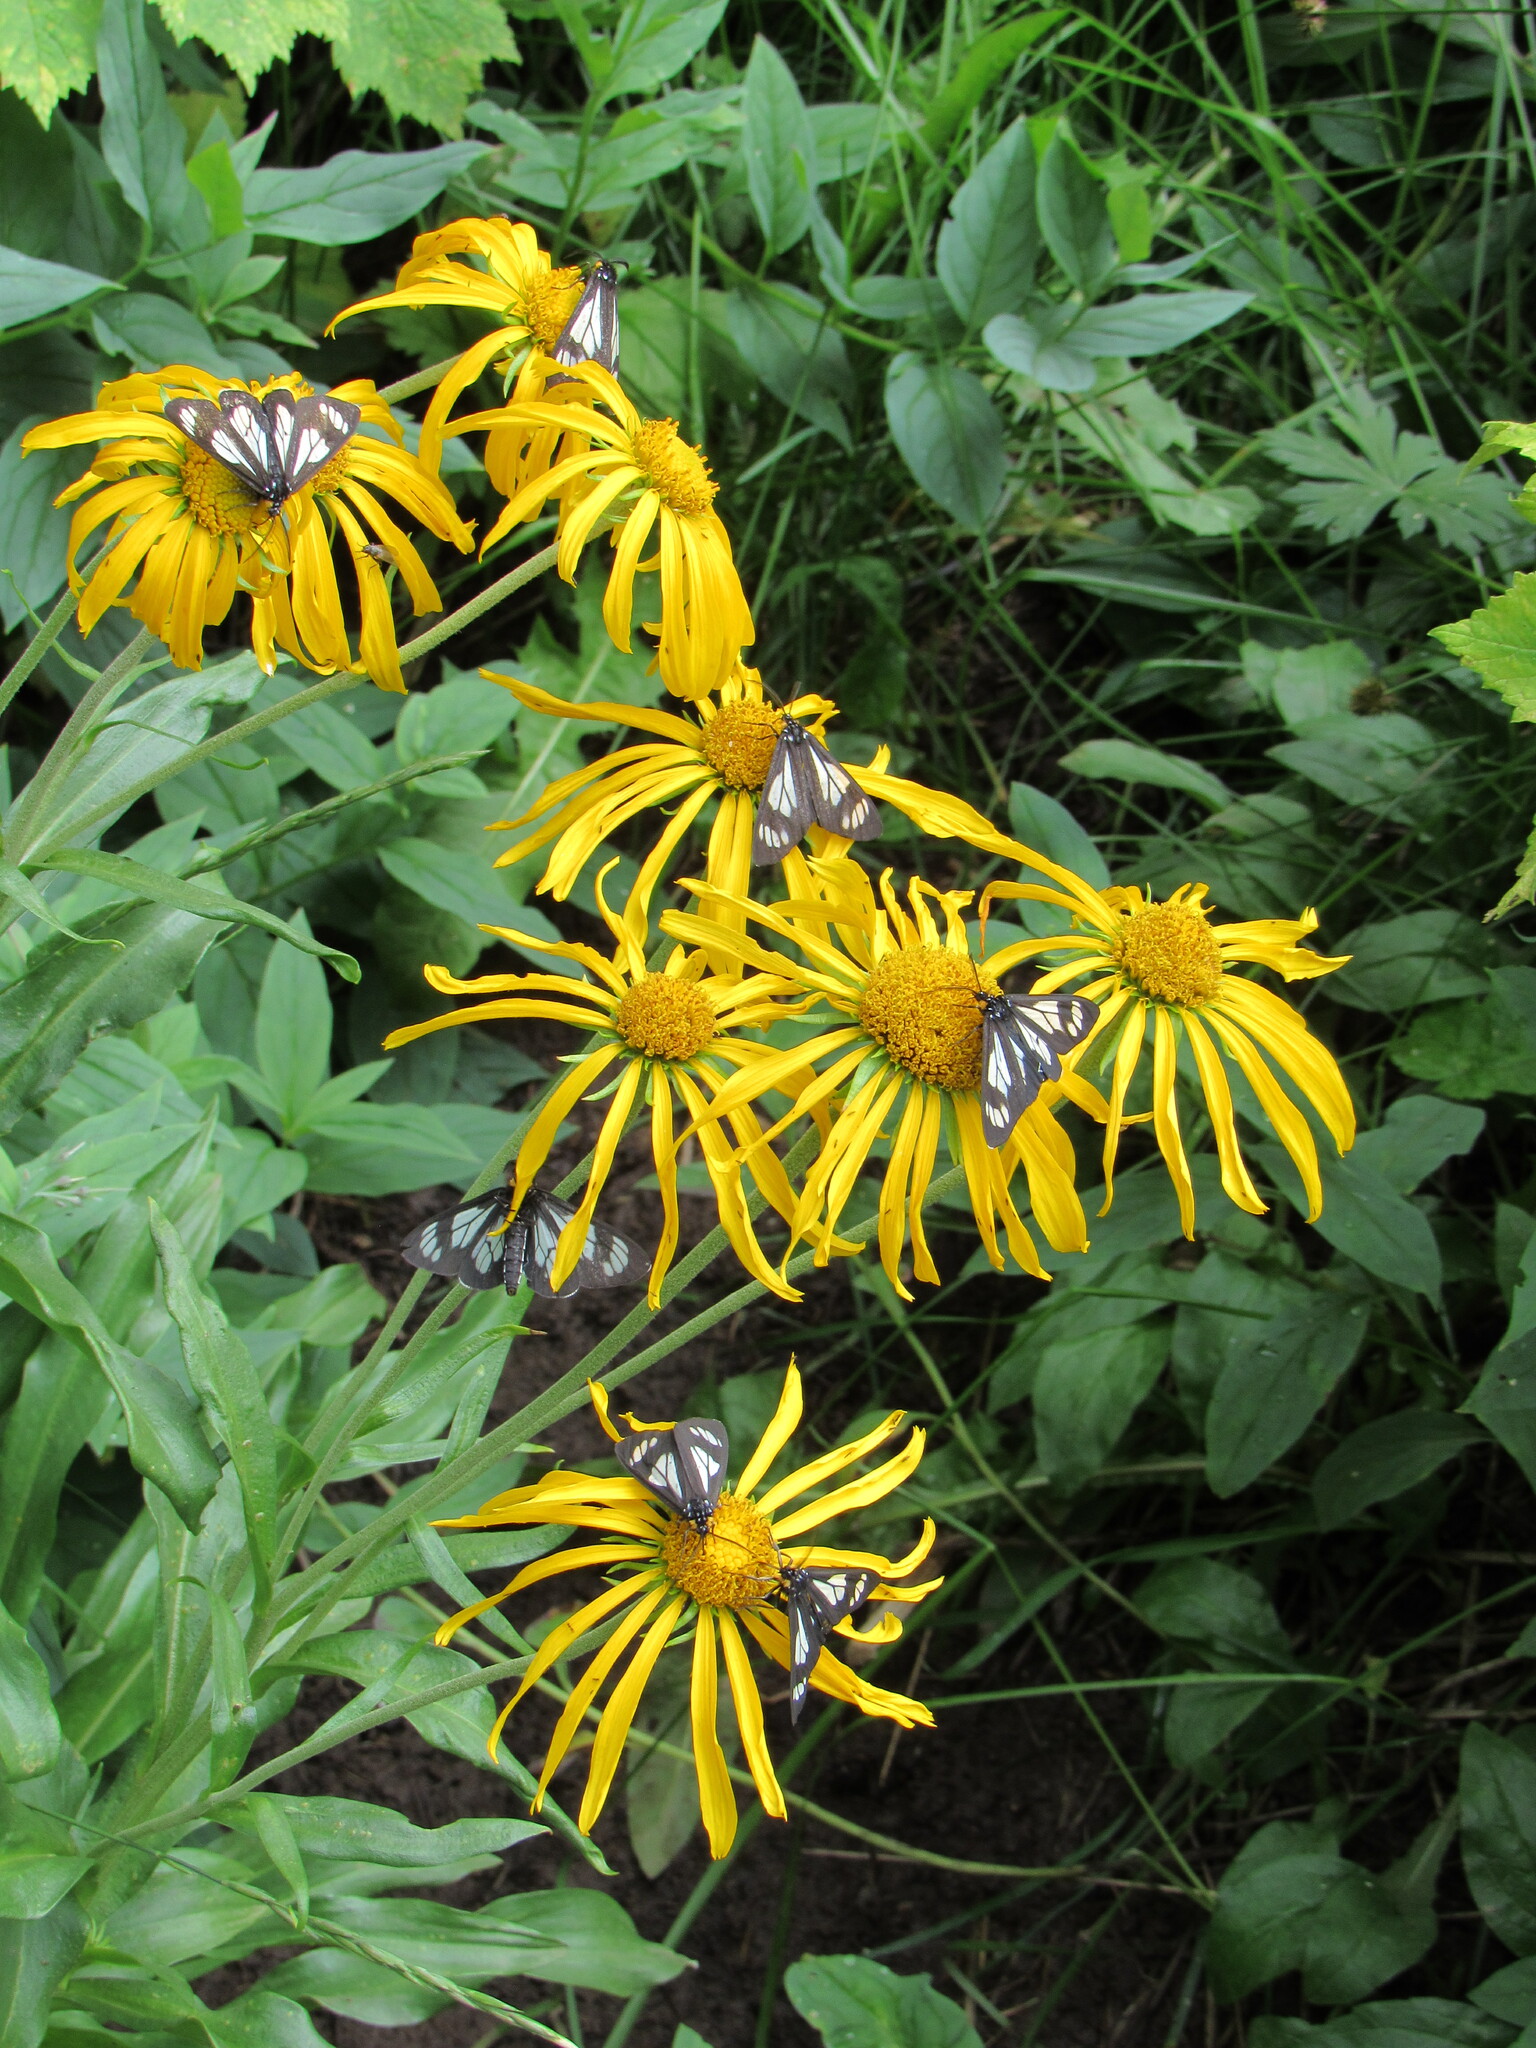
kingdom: Plantae
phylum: Tracheophyta
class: Magnoliopsida
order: Asterales
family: Asteraceae
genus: Hymenoxys
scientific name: Hymenoxys hoopesii
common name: Orange-sneezeweed
